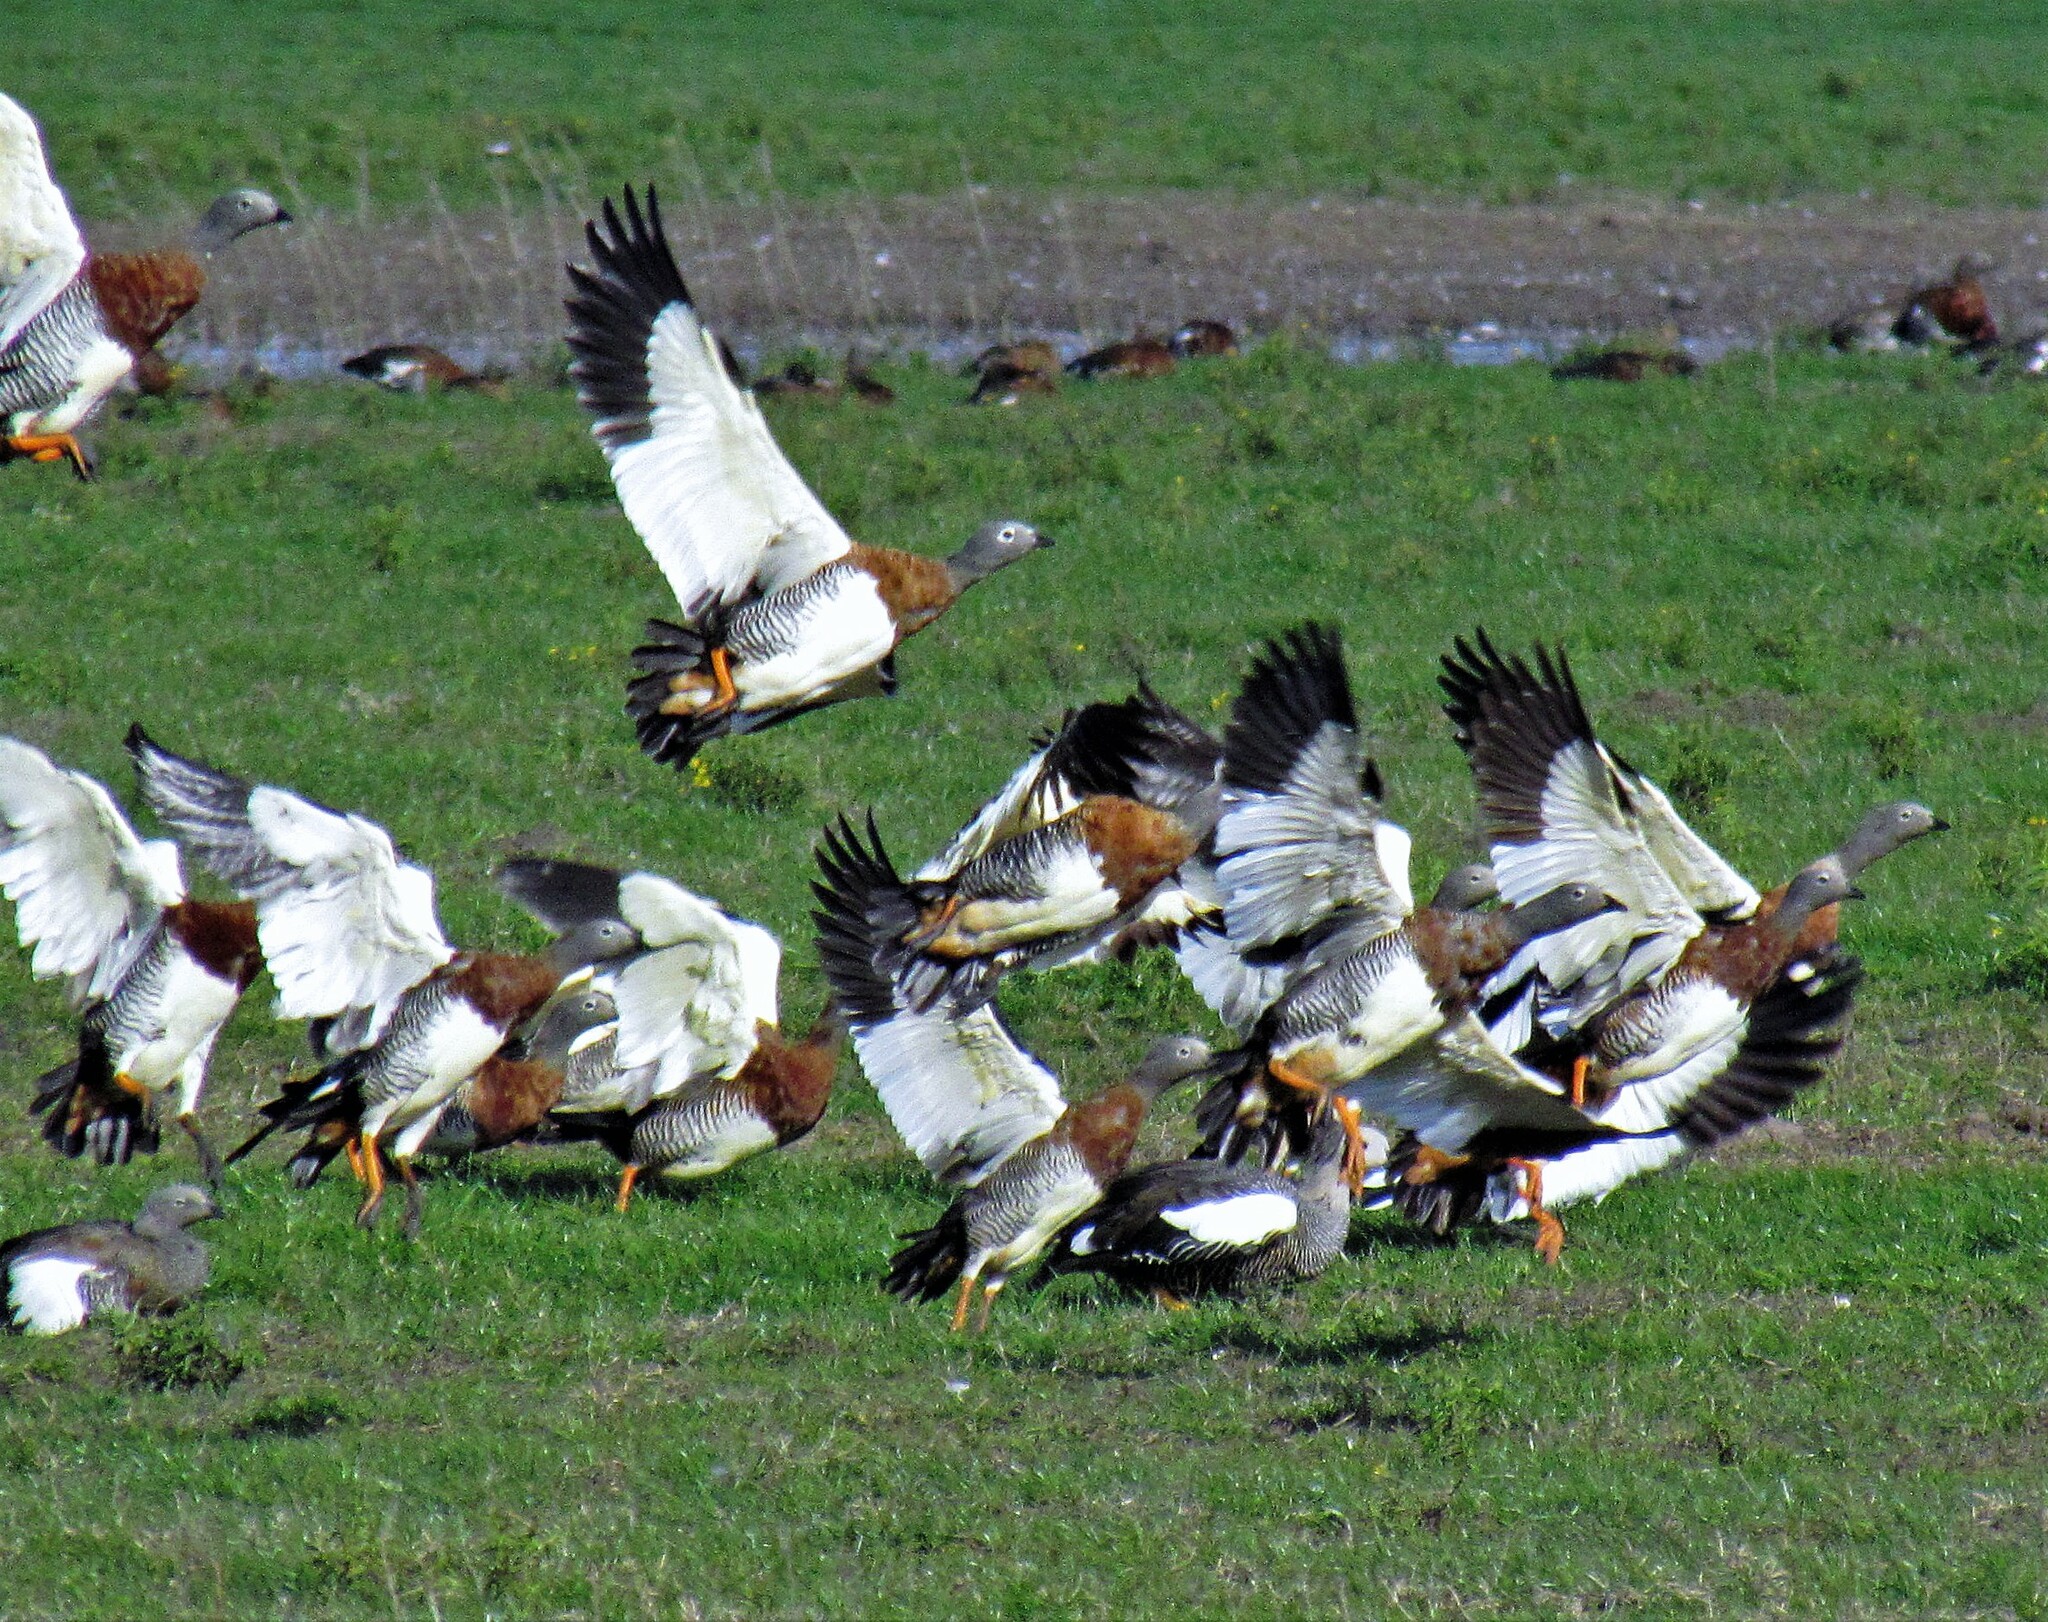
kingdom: Animalia
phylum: Chordata
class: Aves
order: Anseriformes
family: Anatidae
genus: Chloephaga
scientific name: Chloephaga poliocephala
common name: Ashy-headed goose
